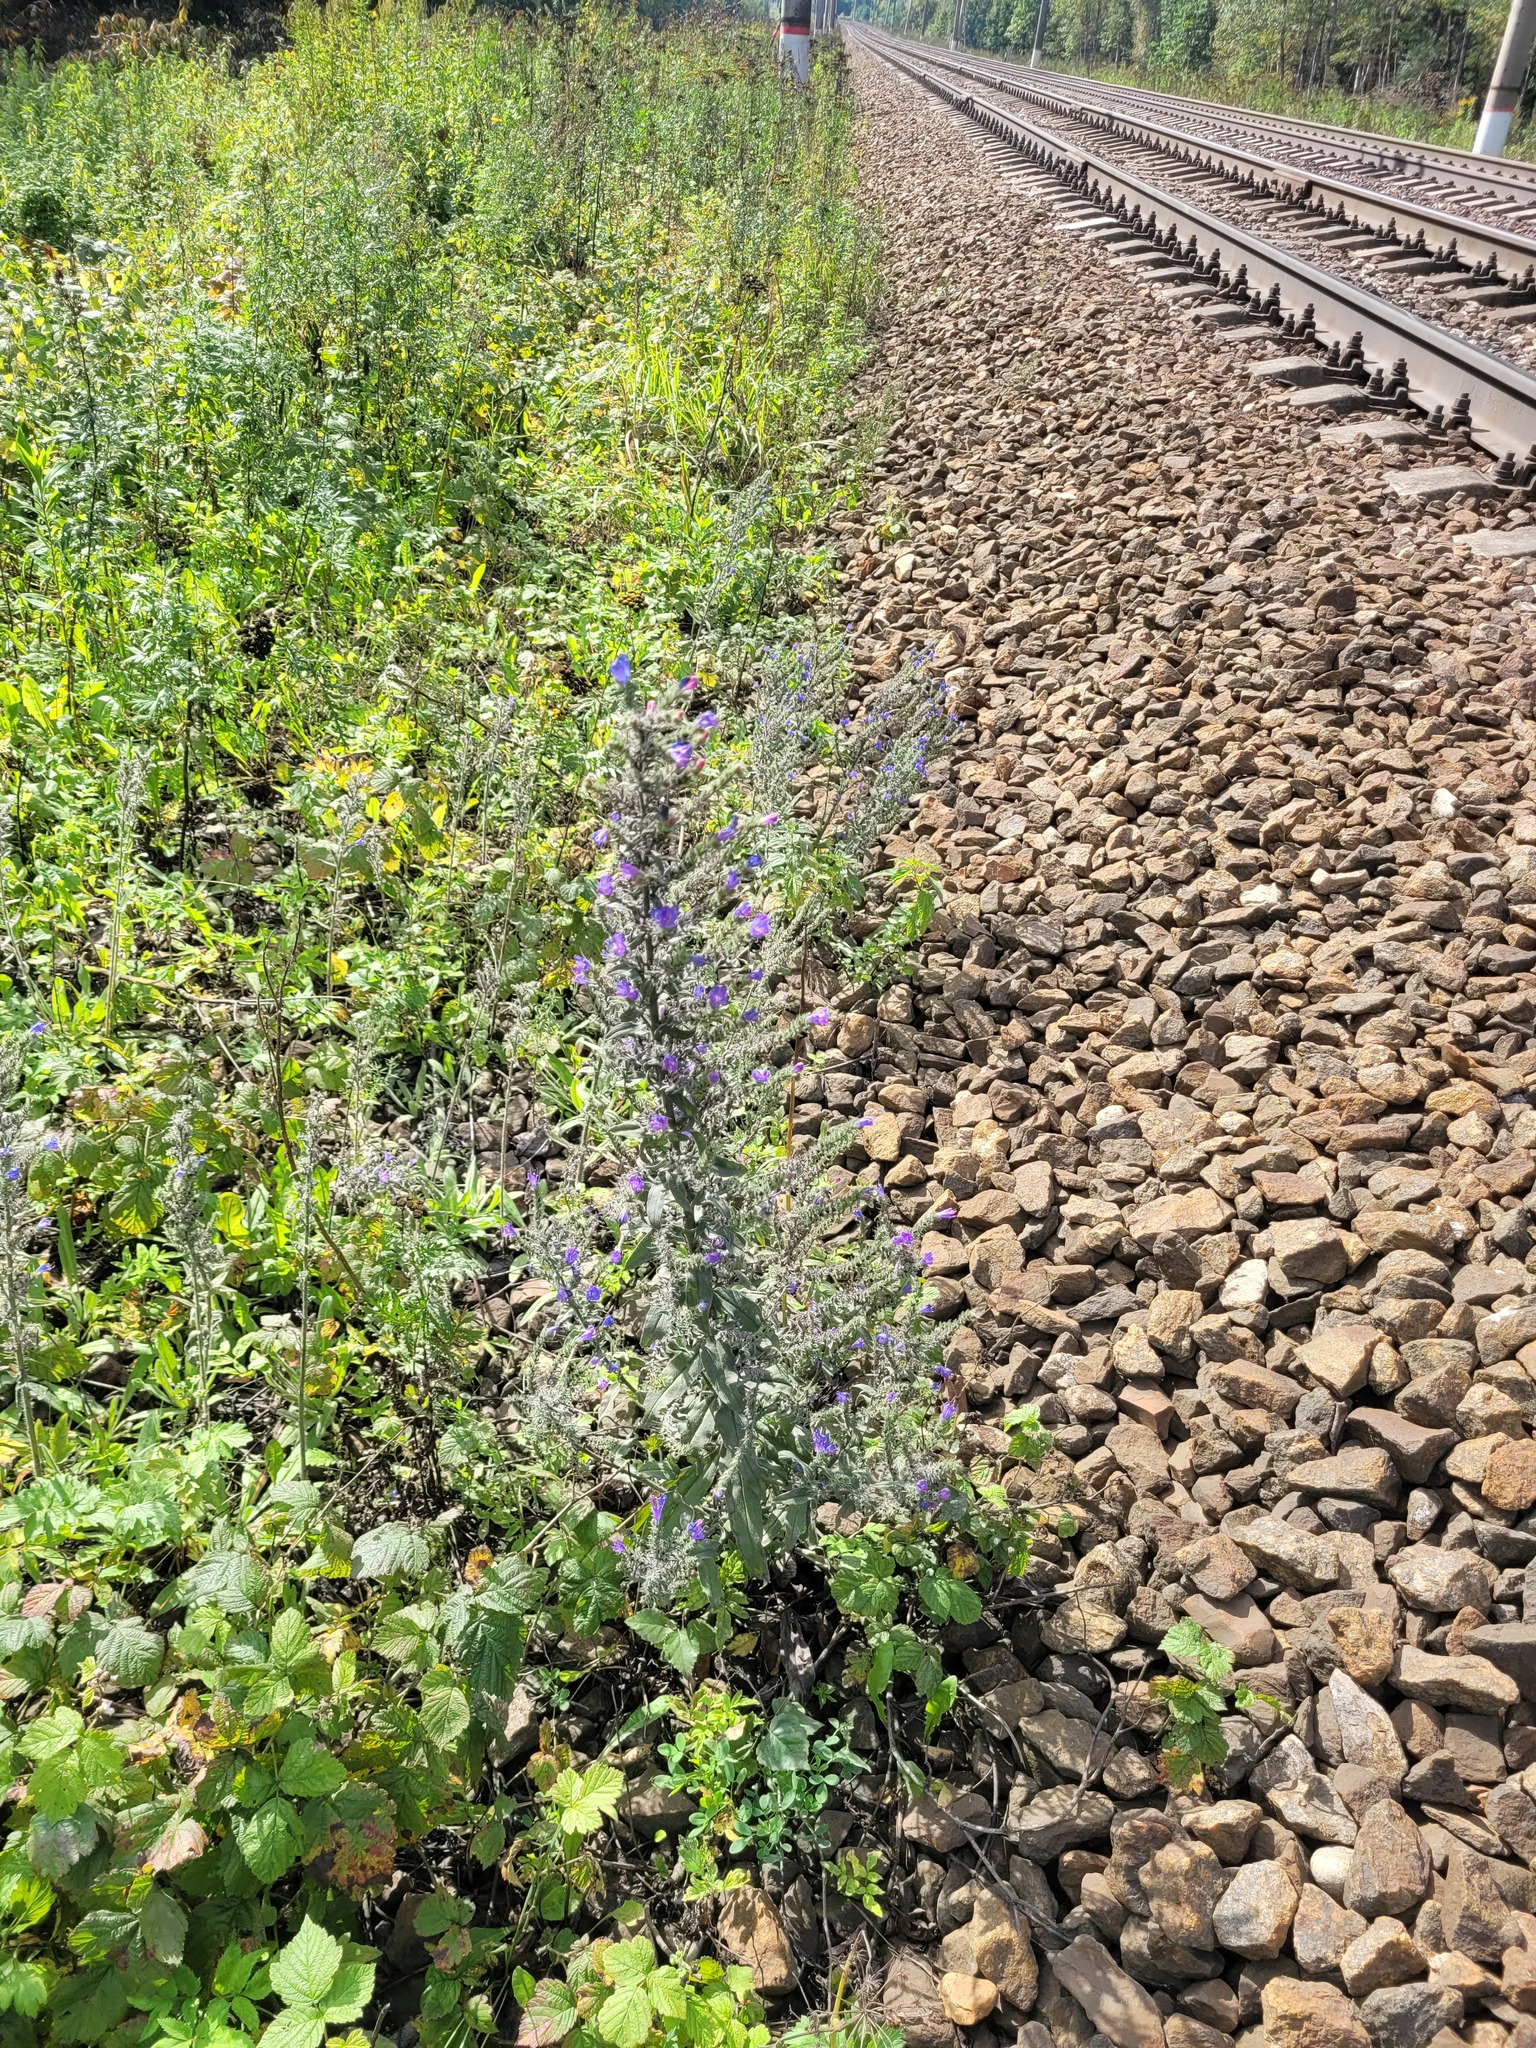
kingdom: Plantae
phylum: Tracheophyta
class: Magnoliopsida
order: Boraginales
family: Boraginaceae
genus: Echium
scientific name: Echium vulgare
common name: Common viper's bugloss
